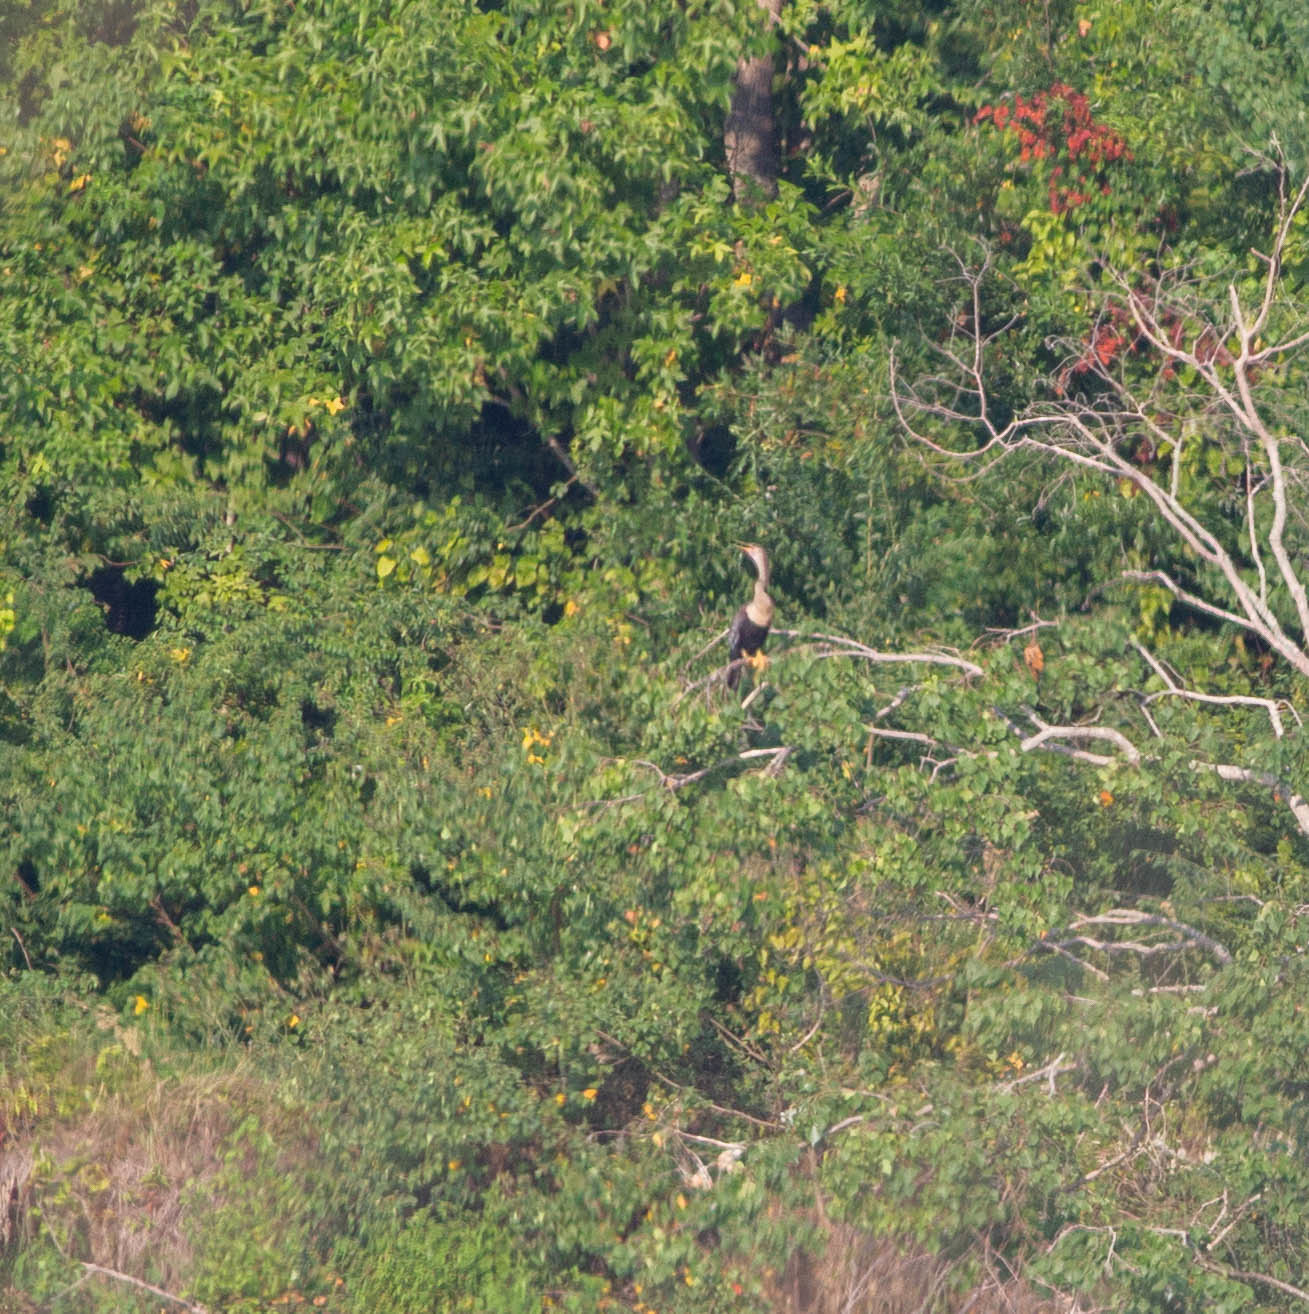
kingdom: Animalia
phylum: Chordata
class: Aves
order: Suliformes
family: Anhingidae
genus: Anhinga
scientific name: Anhinga anhinga
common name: Anhinga
